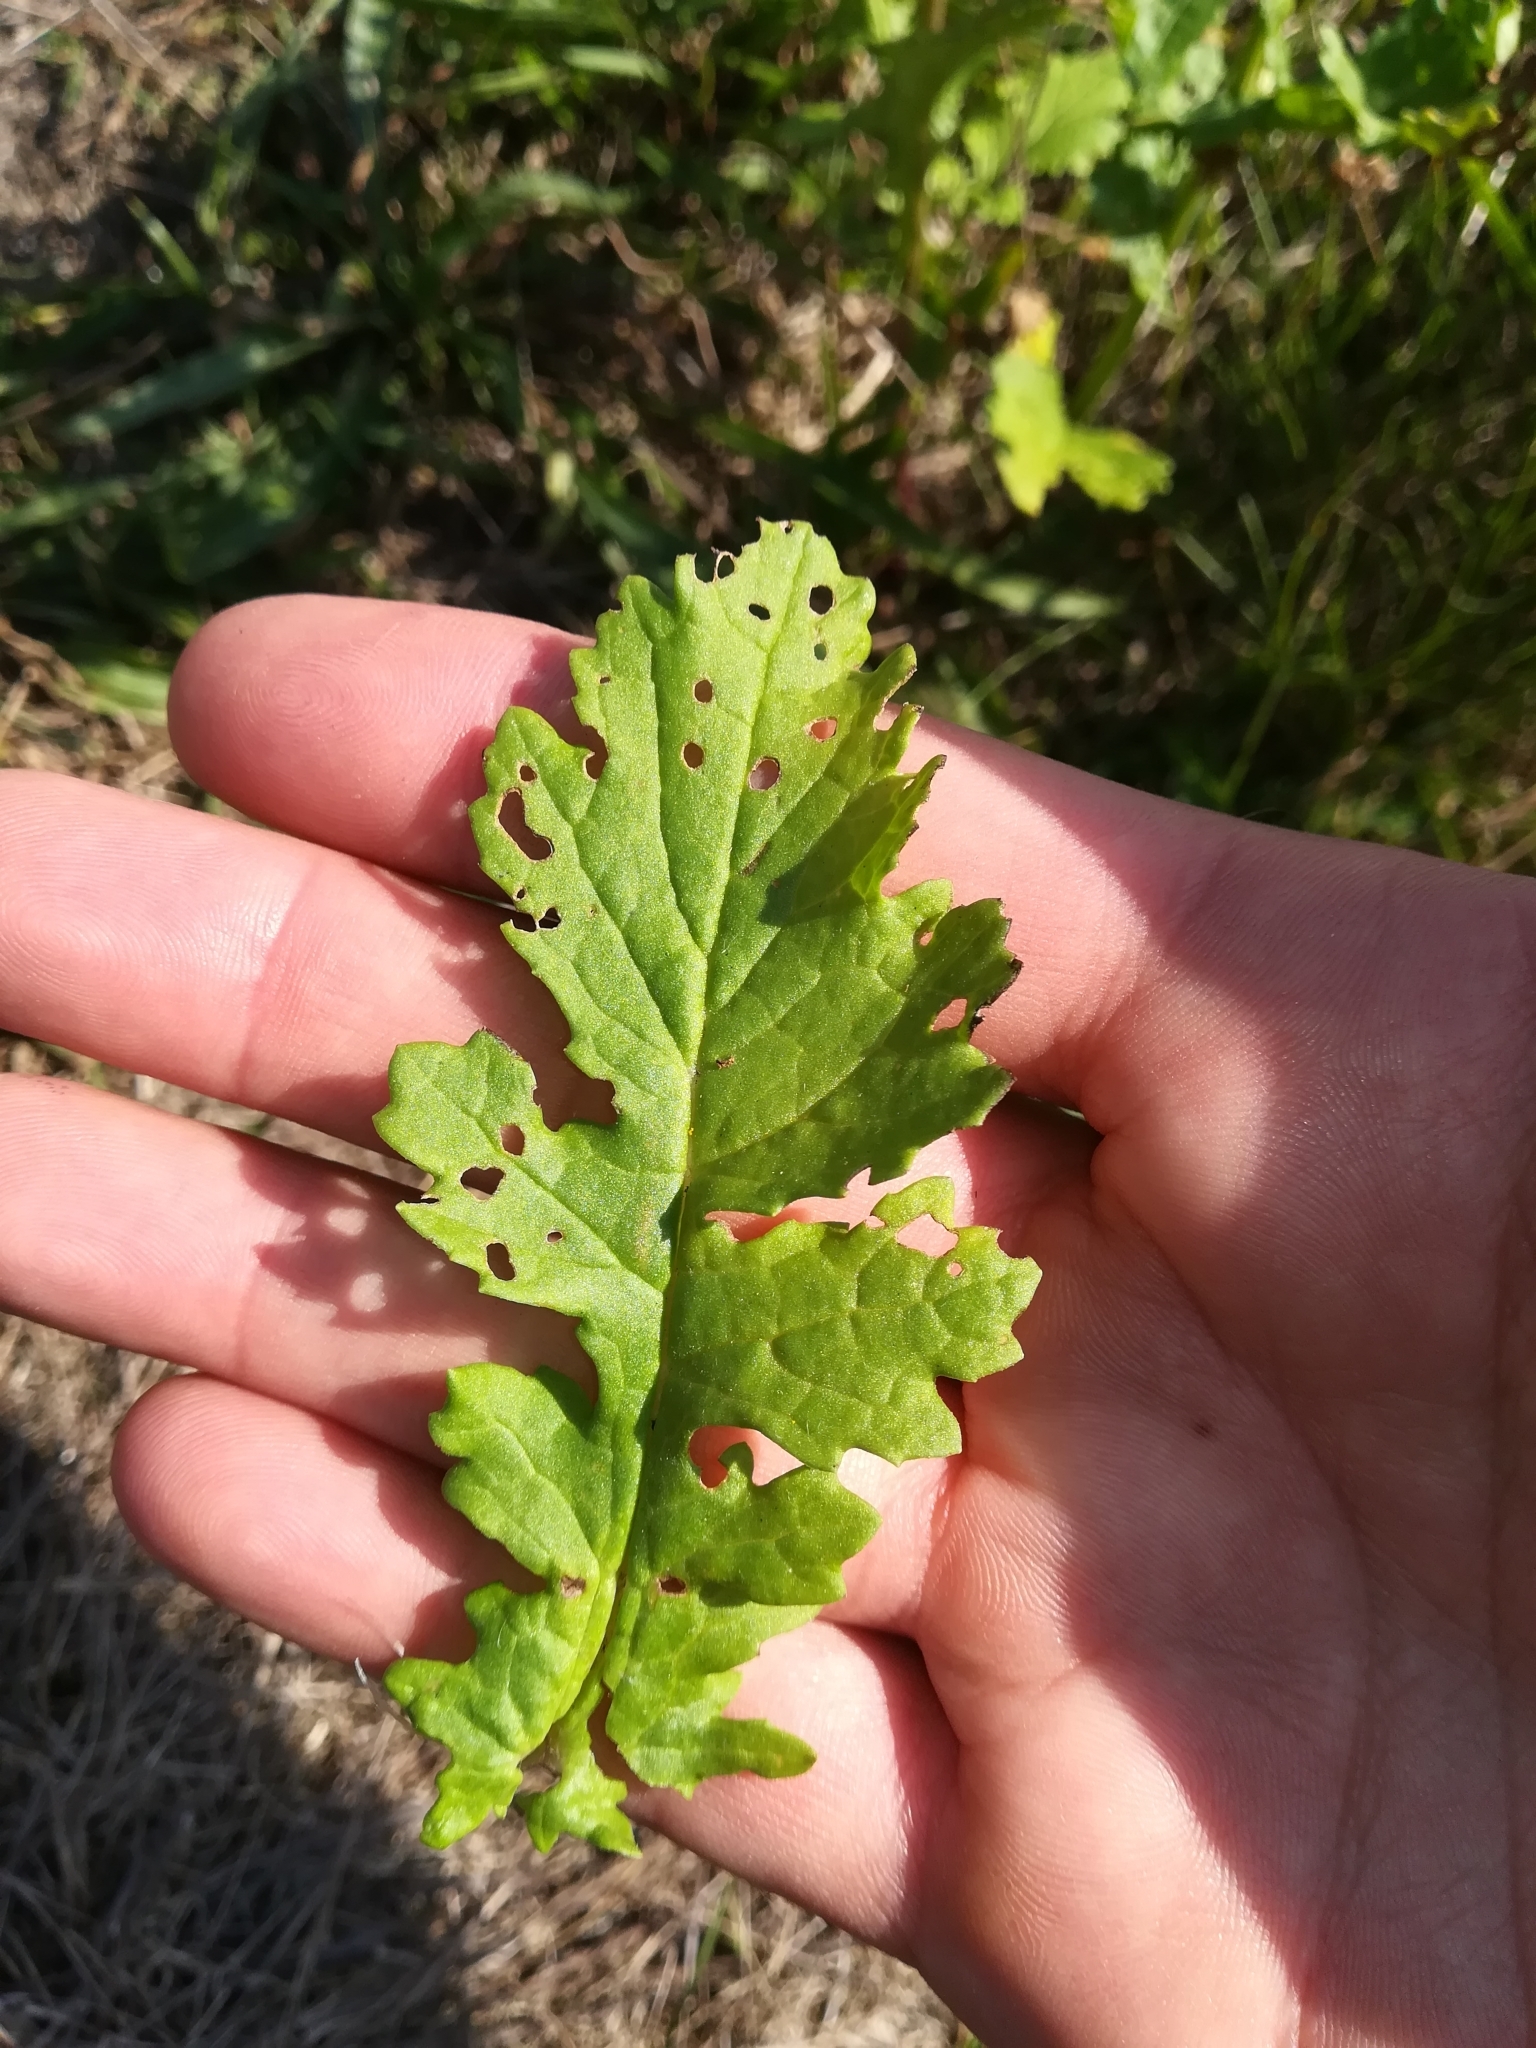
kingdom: Plantae
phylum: Tracheophyta
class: Magnoliopsida
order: Asterales
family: Asteraceae
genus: Jacobaea
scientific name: Jacobaea vulgaris
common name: Stinking willie
